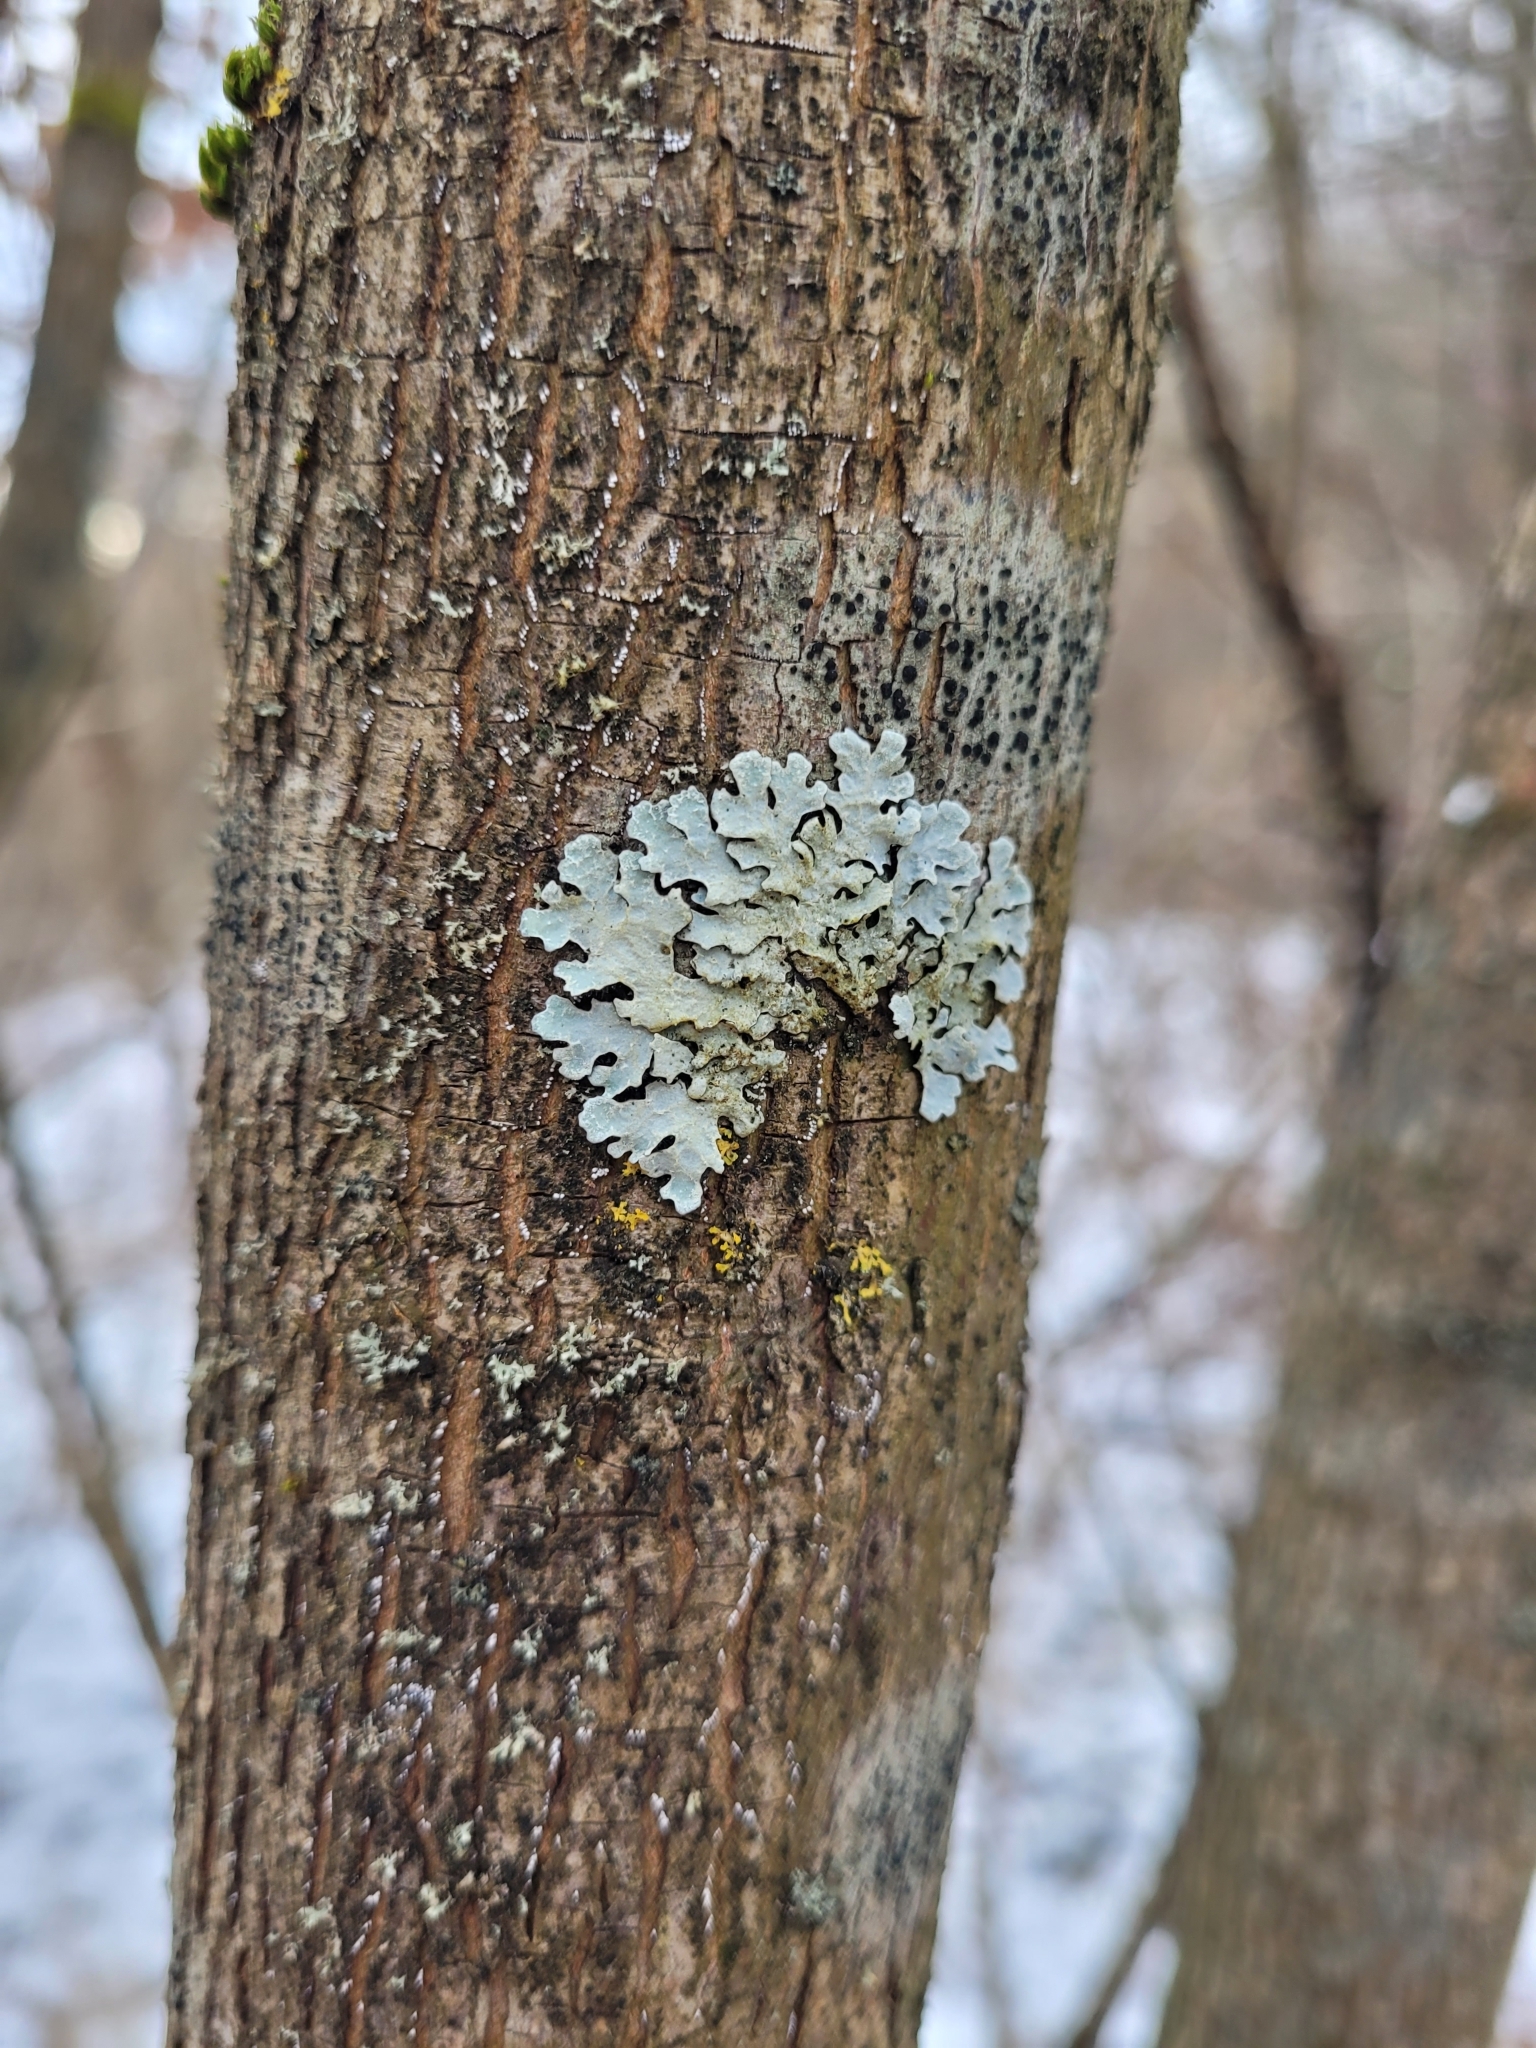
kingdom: Fungi
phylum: Ascomycota
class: Lecanoromycetes
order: Lecanorales
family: Parmeliaceae
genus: Parmelia
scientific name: Parmelia sulcata
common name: Netted shield lichen
